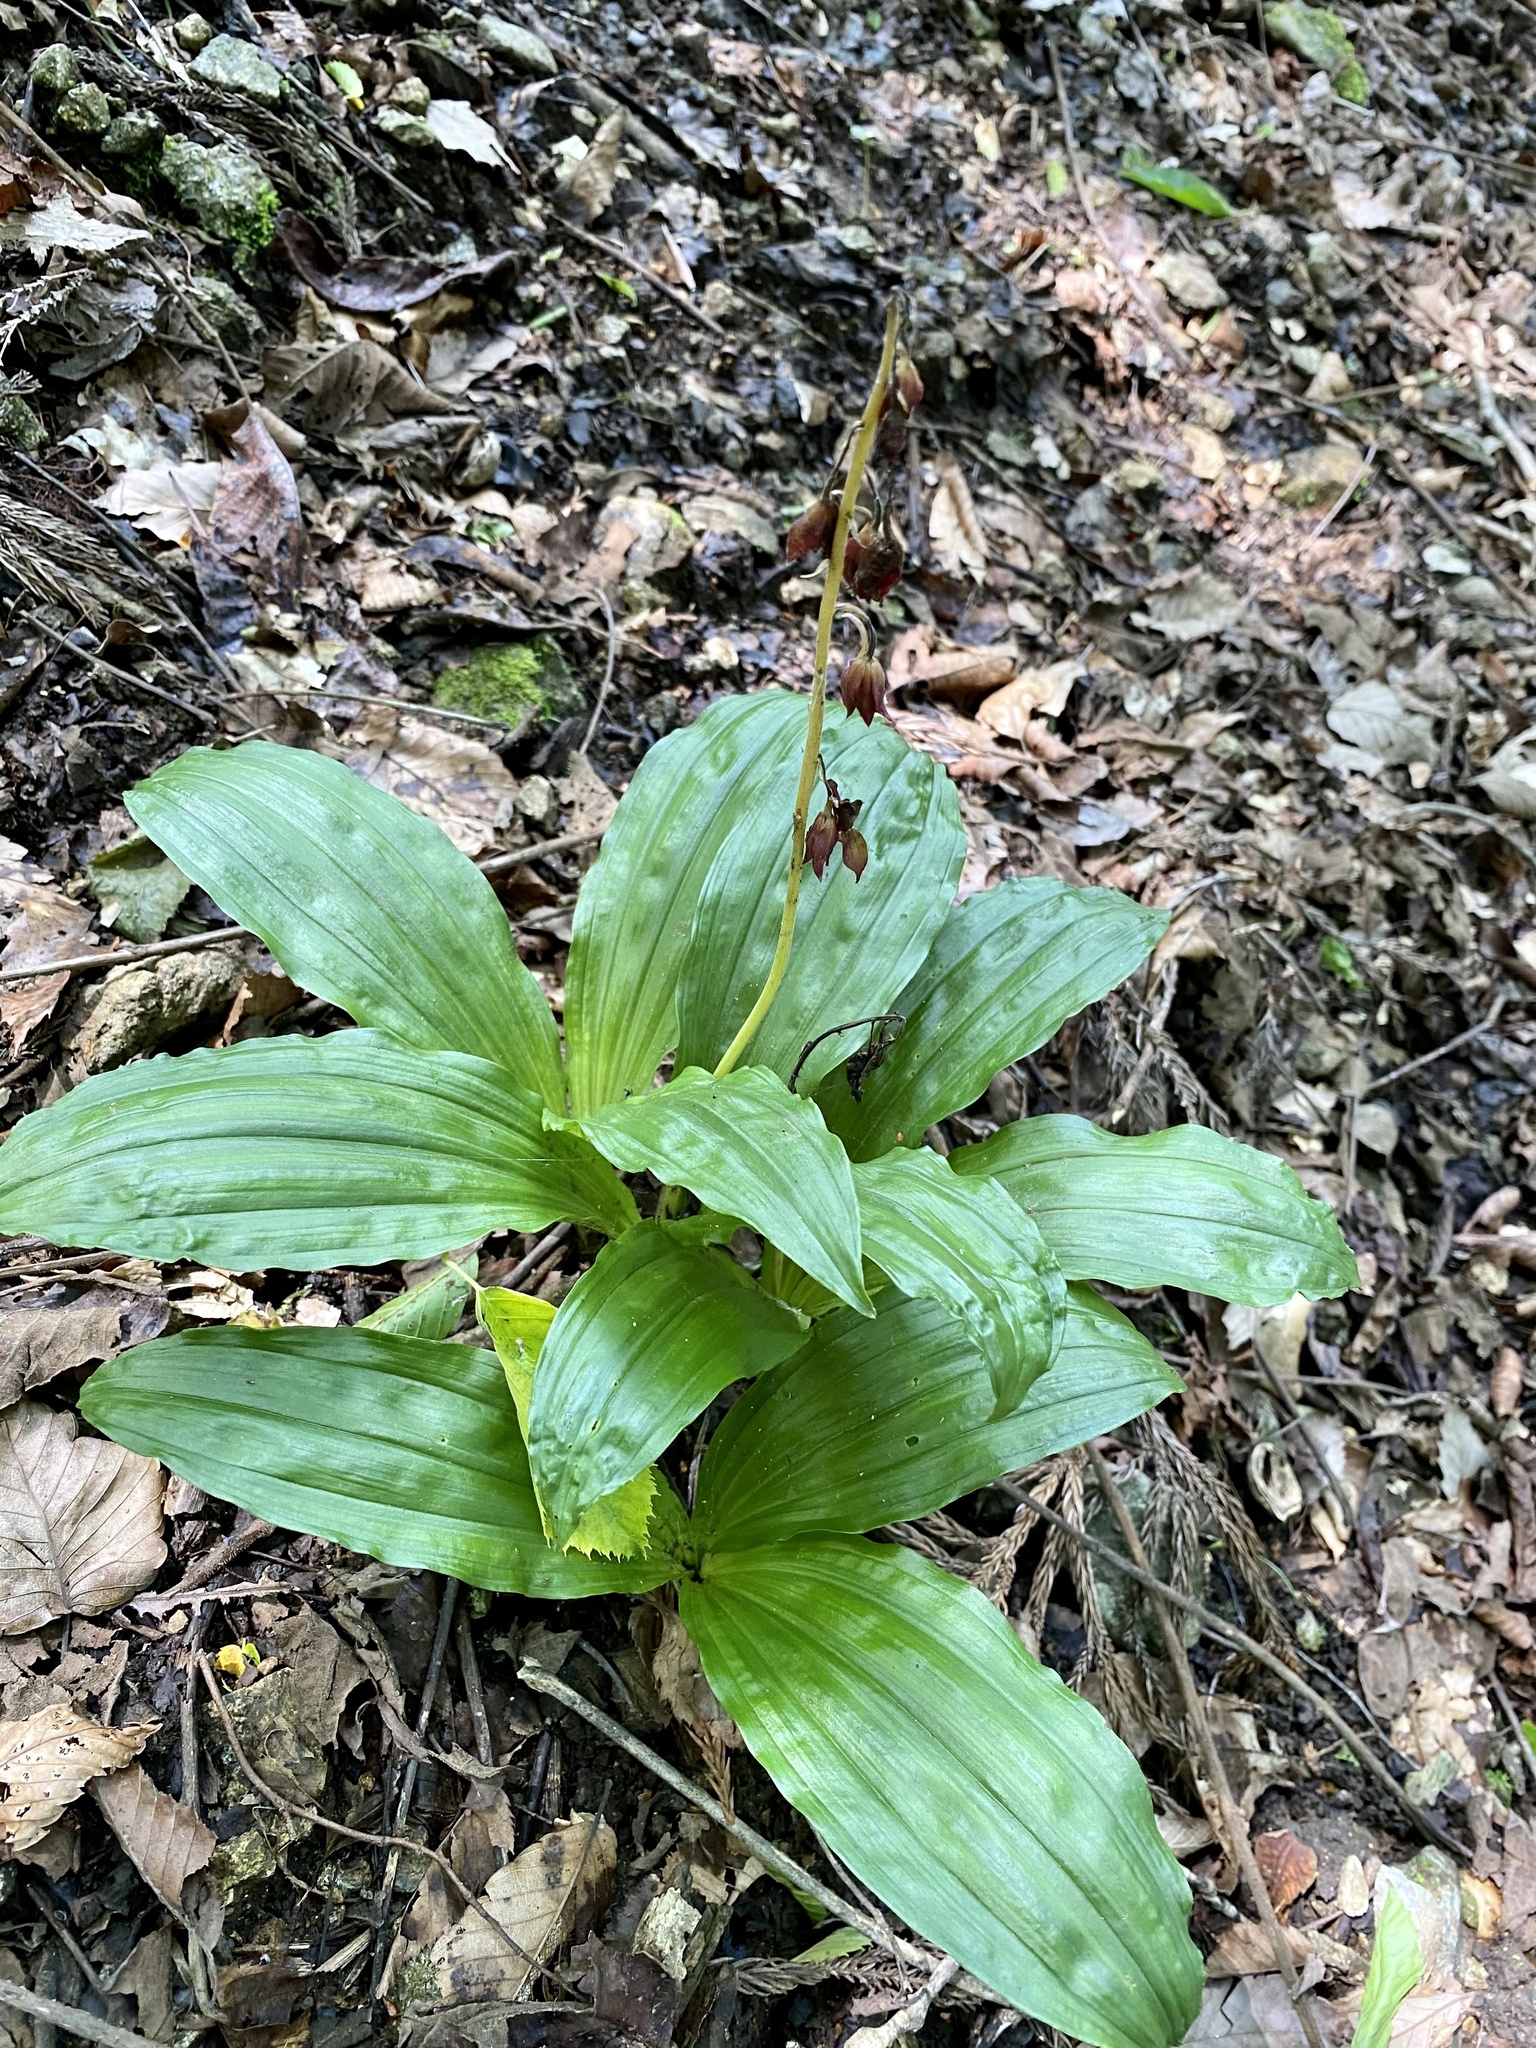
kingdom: Plantae
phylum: Tracheophyta
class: Liliopsida
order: Asparagales
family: Orchidaceae
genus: Calanthe
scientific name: Calanthe discolor
